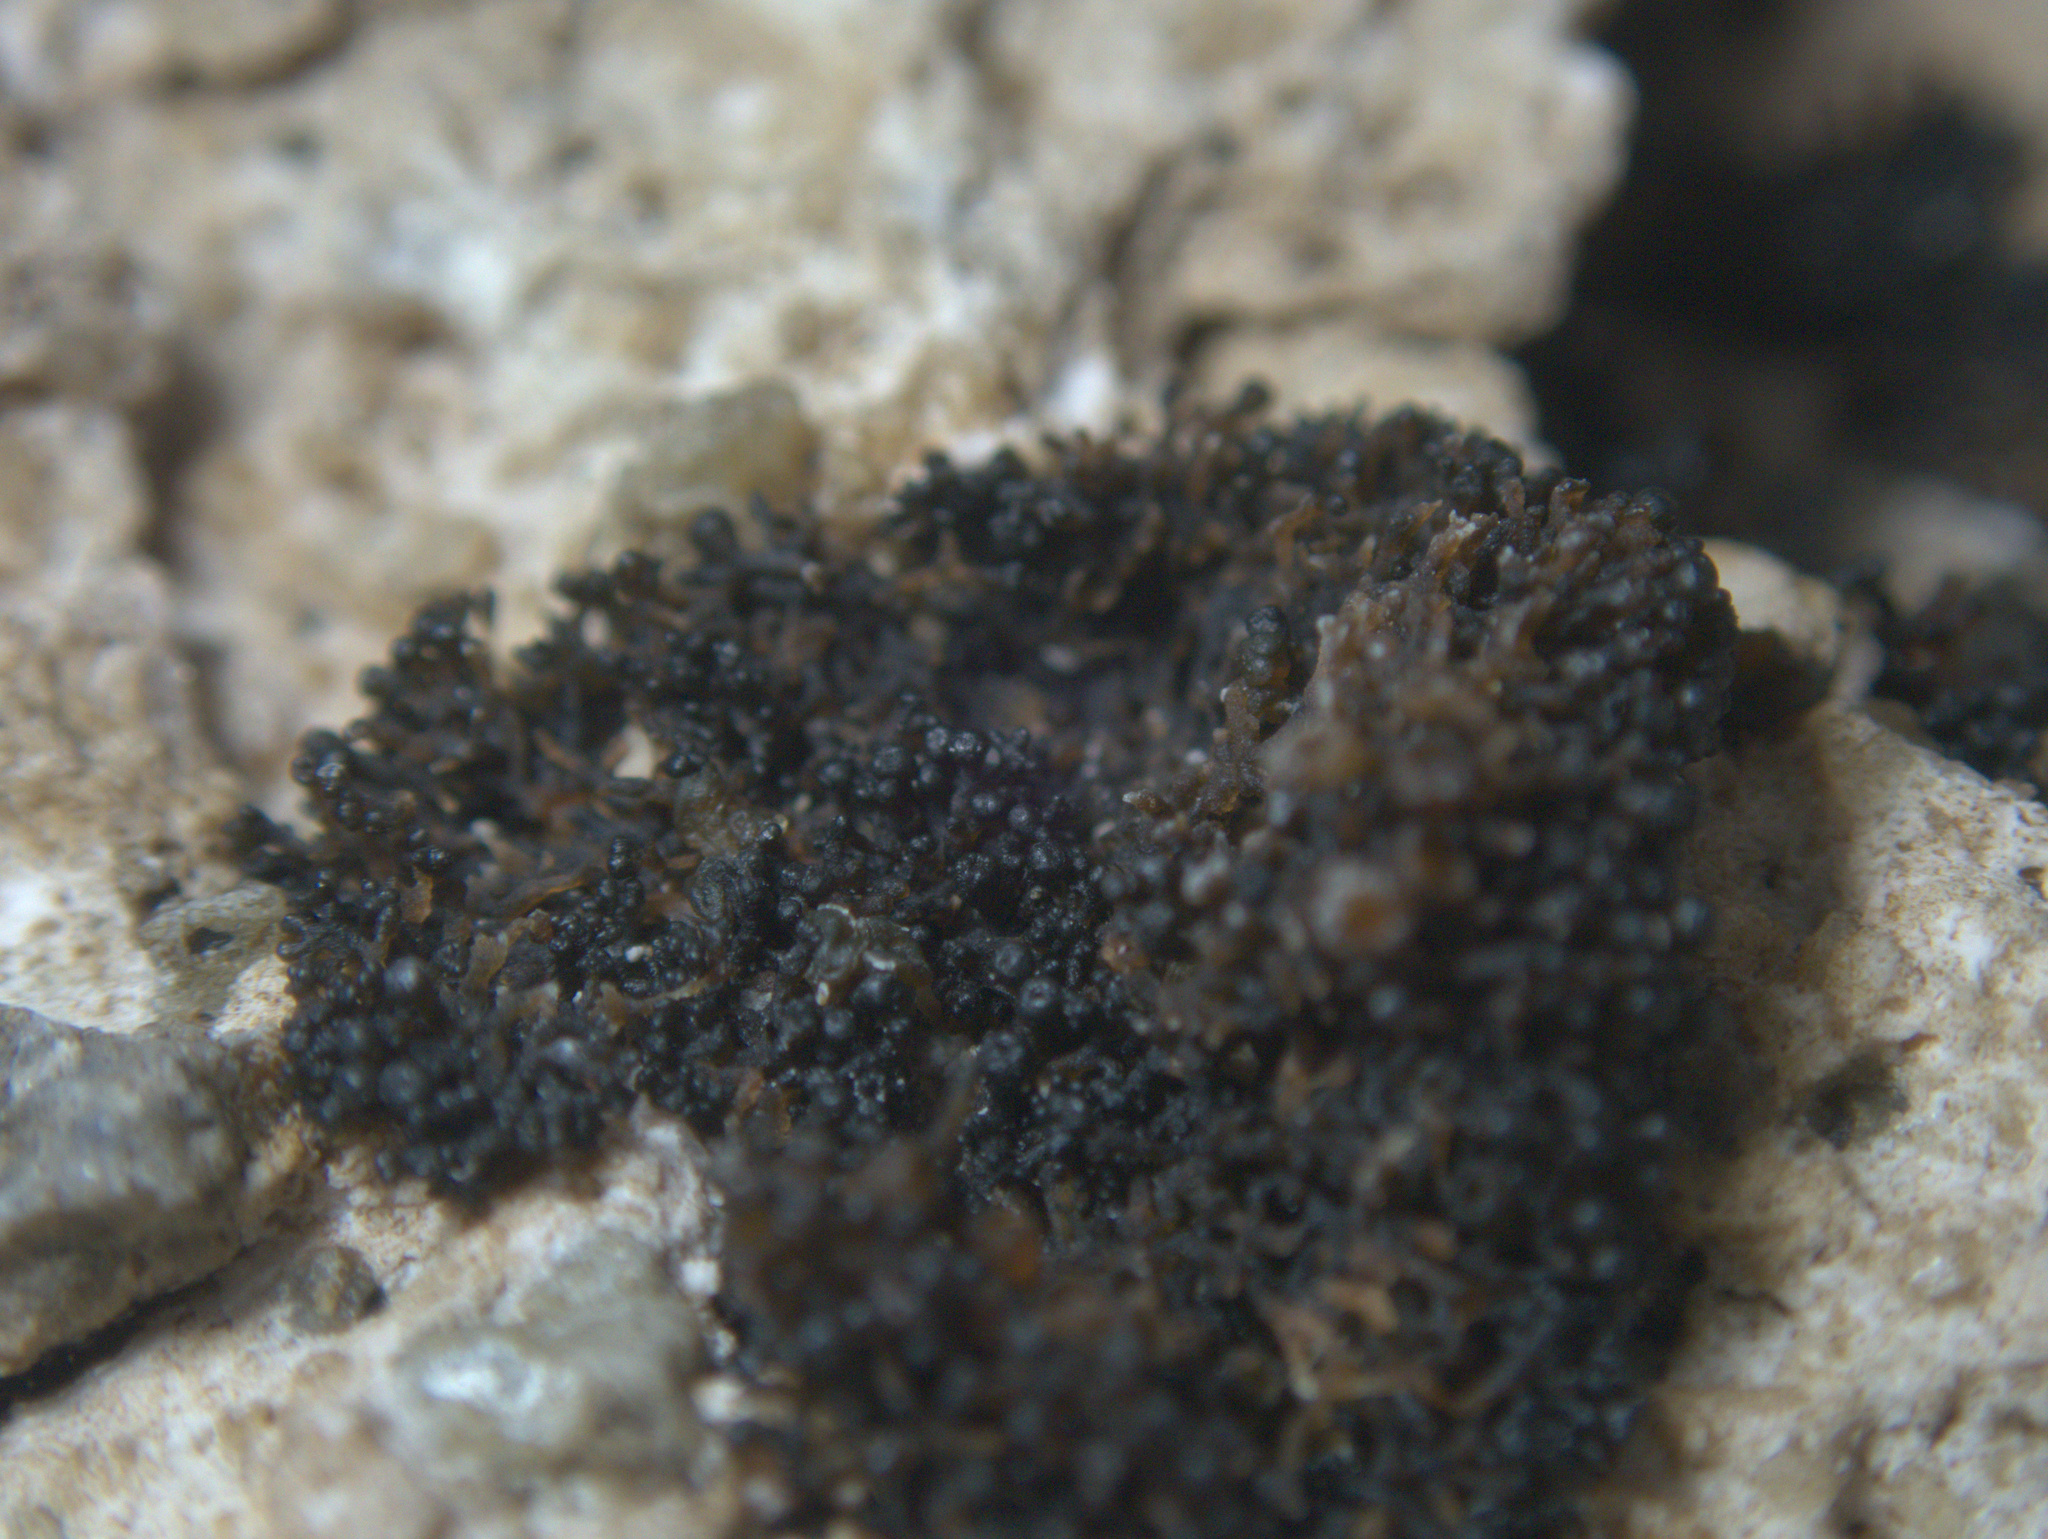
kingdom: Fungi
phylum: Ascomycota
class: Lichinomycetes
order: Lichinales
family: Lichinaceae
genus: Lichina
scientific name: Lichina intermedia
